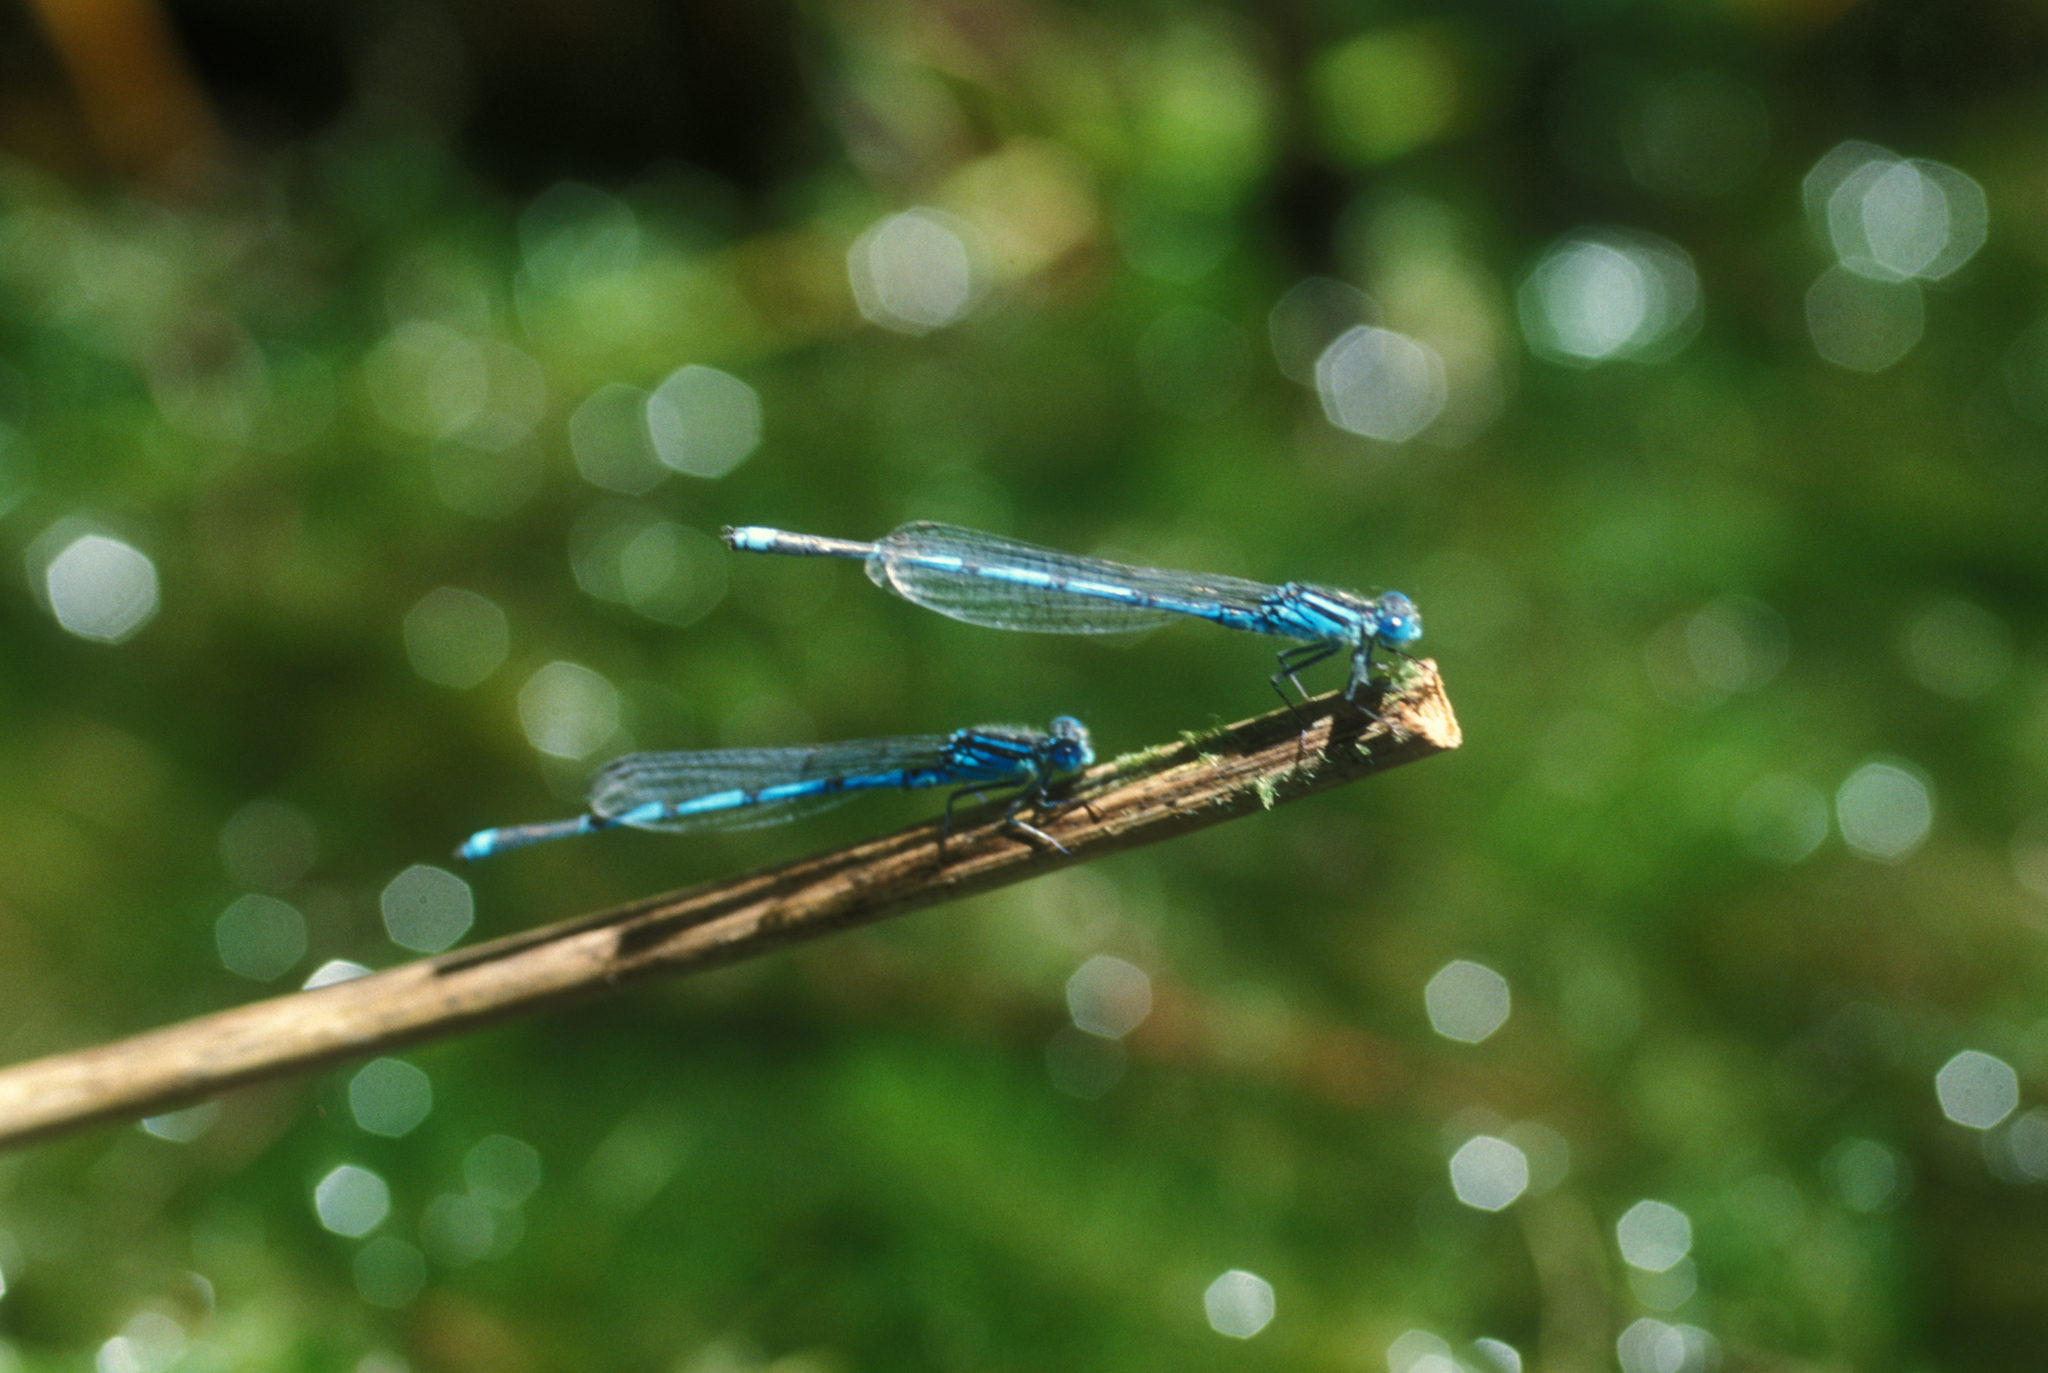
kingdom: Animalia
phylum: Arthropoda
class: Insecta
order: Odonata
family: Coenagrionidae
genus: Erythromma
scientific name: Erythromma lindenii
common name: Blue-eye
